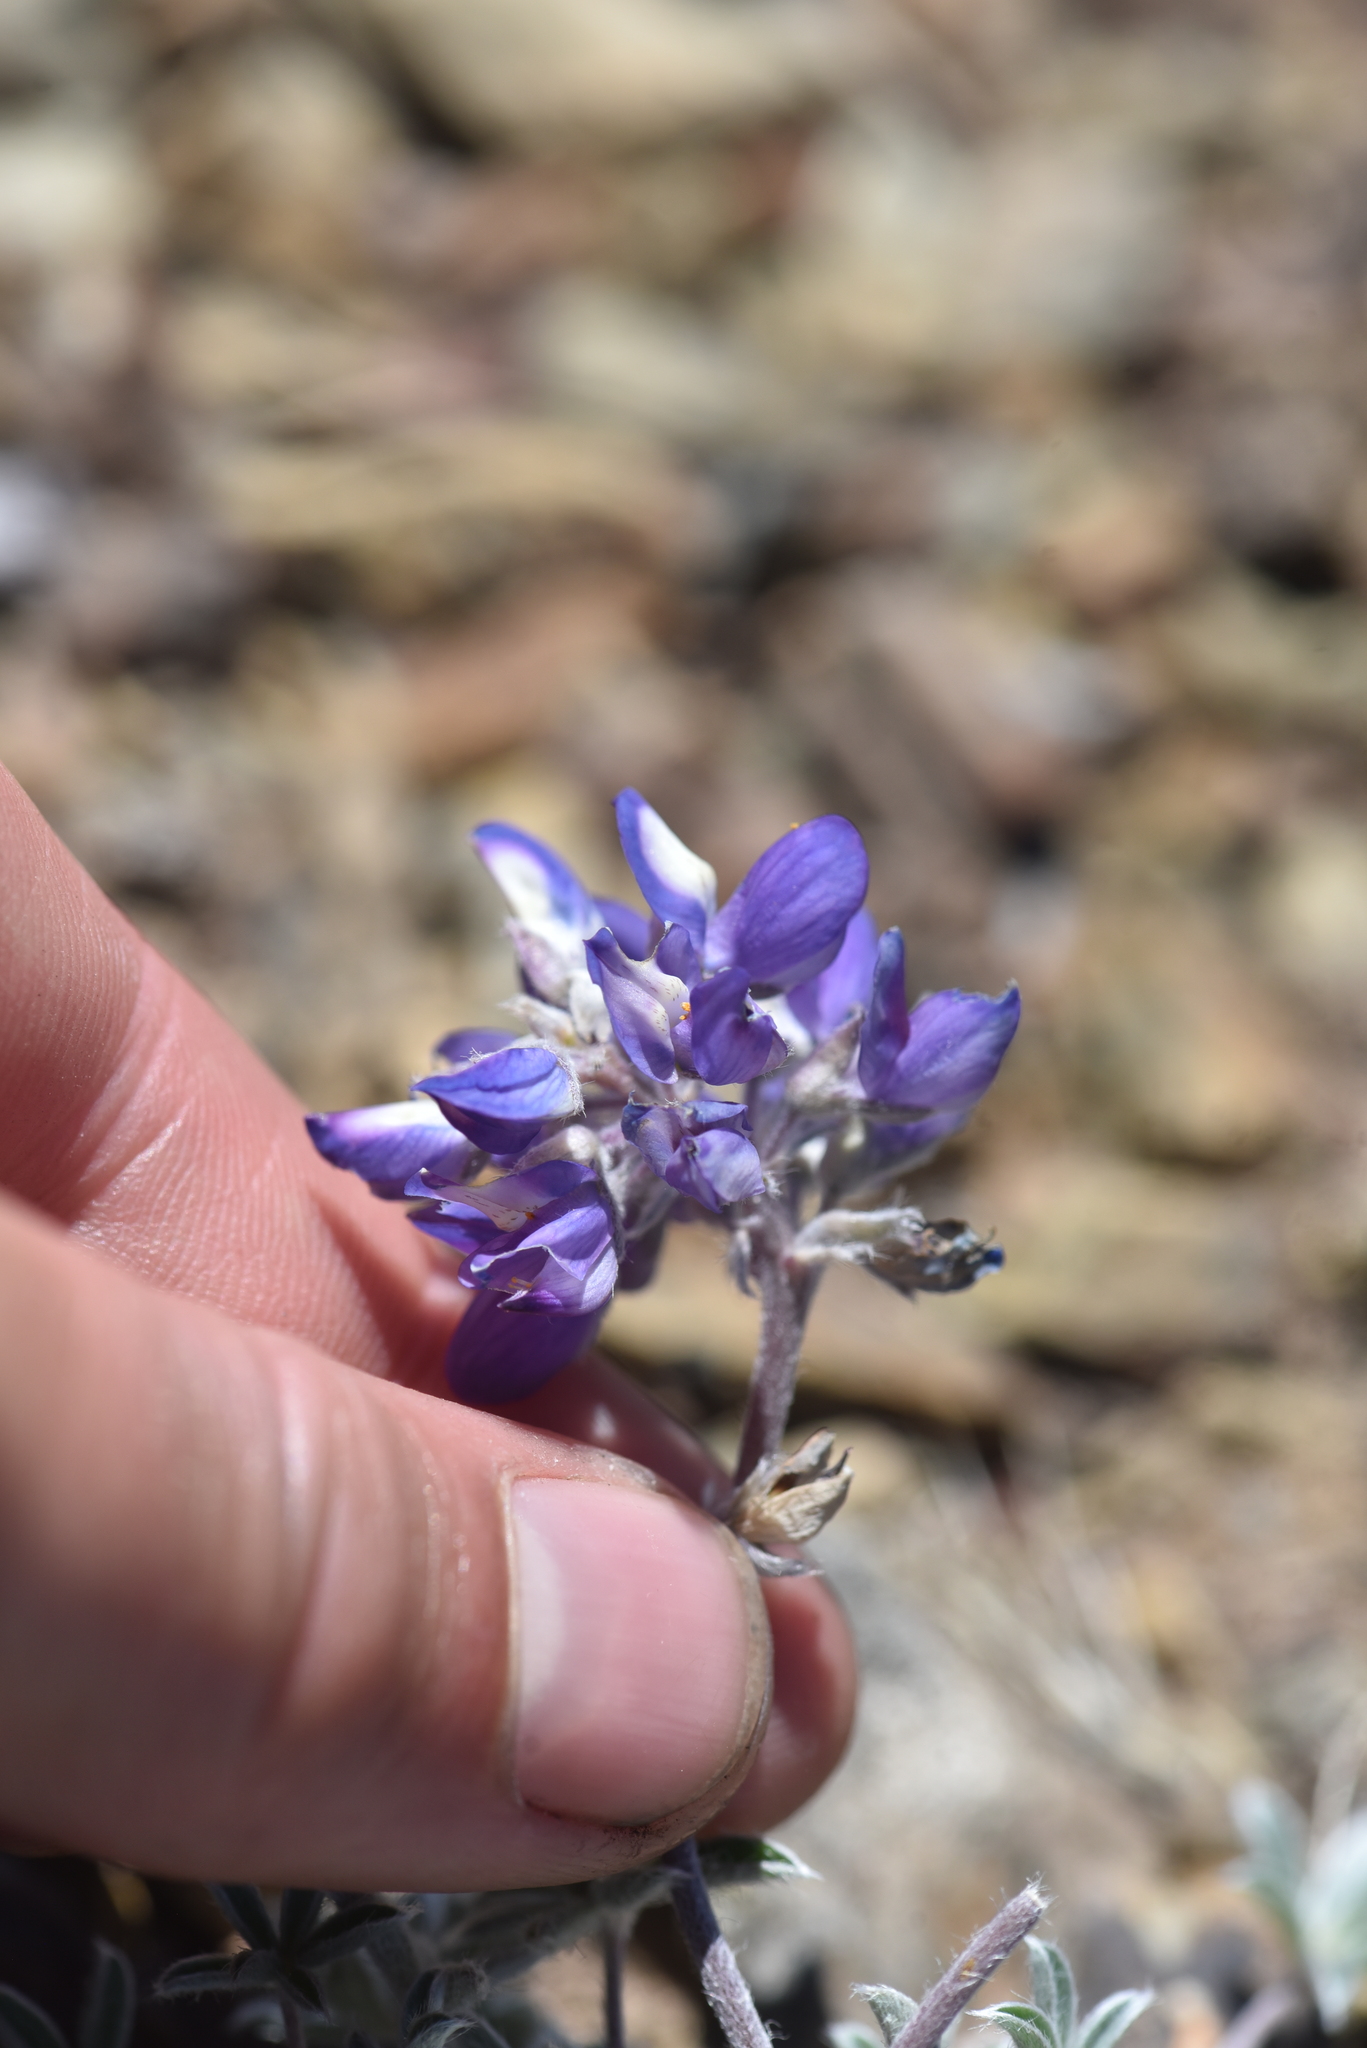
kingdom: Plantae
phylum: Tracheophyta
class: Magnoliopsida
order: Fabales
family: Fabaceae
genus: Lupinus
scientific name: Lupinus lepidus
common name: Prairie lupine
